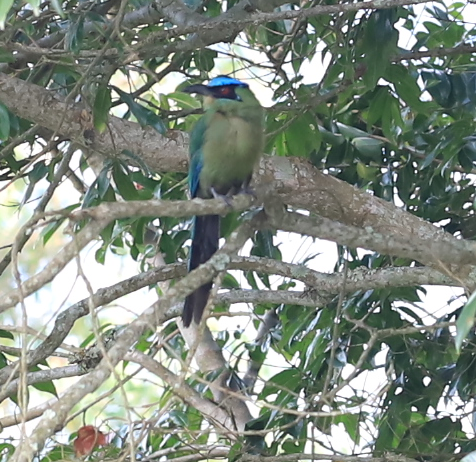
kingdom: Animalia
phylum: Chordata
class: Aves
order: Coraciiformes
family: Momotidae
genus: Momotus
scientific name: Momotus aequatorialis
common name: Andean motmot
